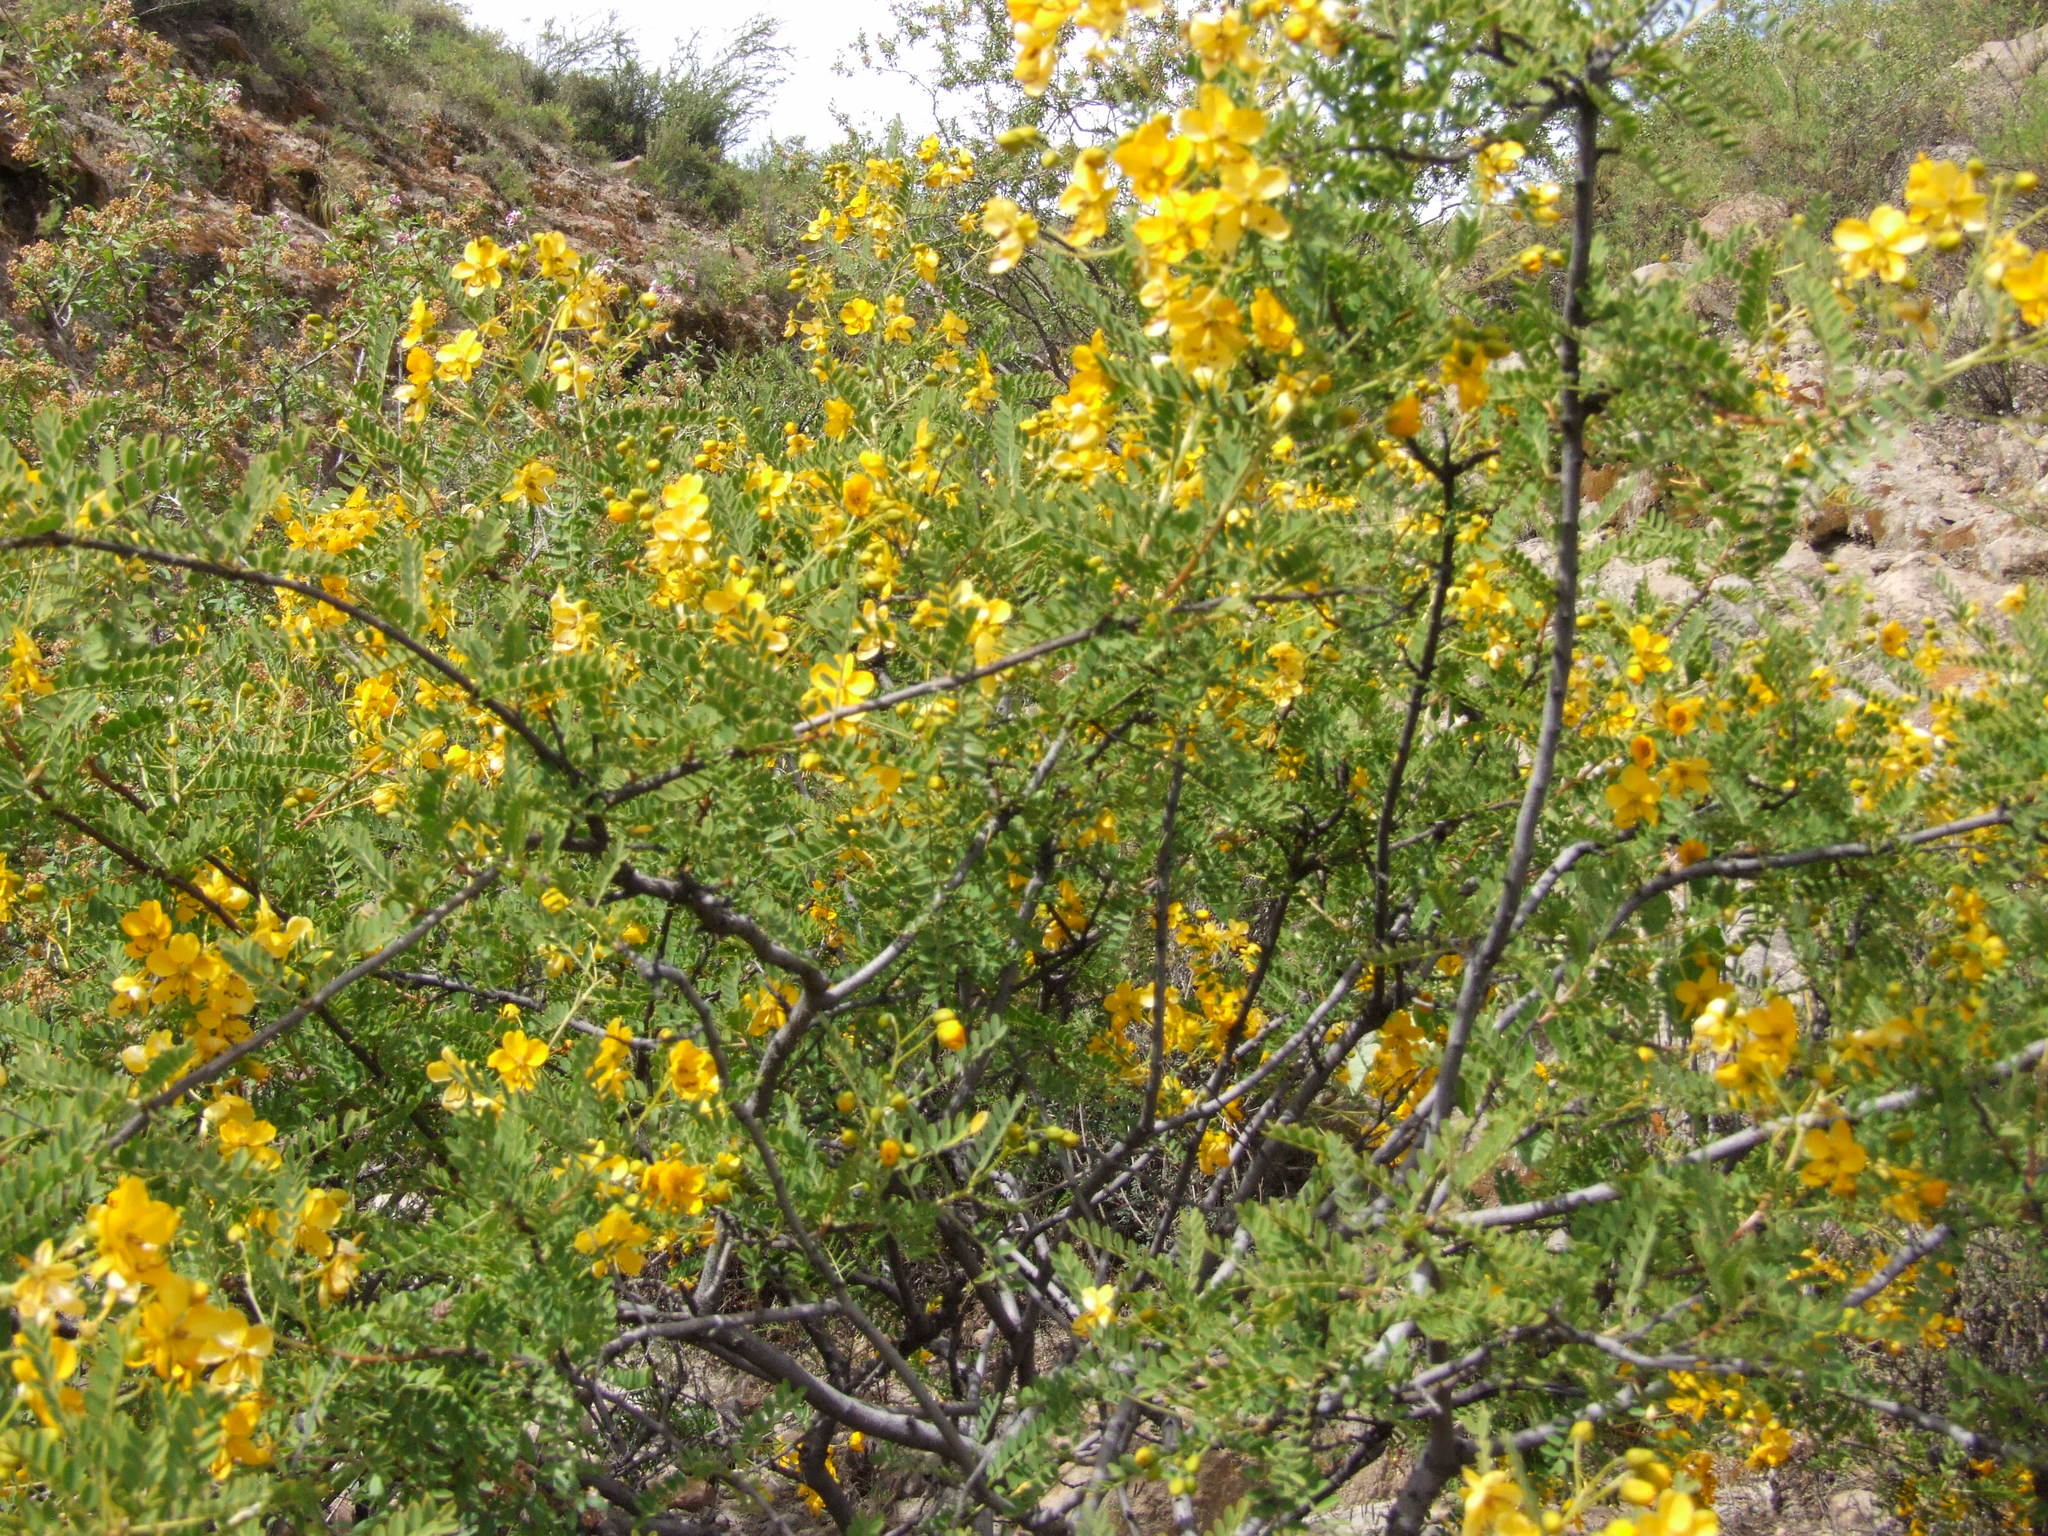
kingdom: Plantae
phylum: Tracheophyta
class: Magnoliopsida
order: Fabales
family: Fabaceae
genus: Senna
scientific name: Senna birostris
